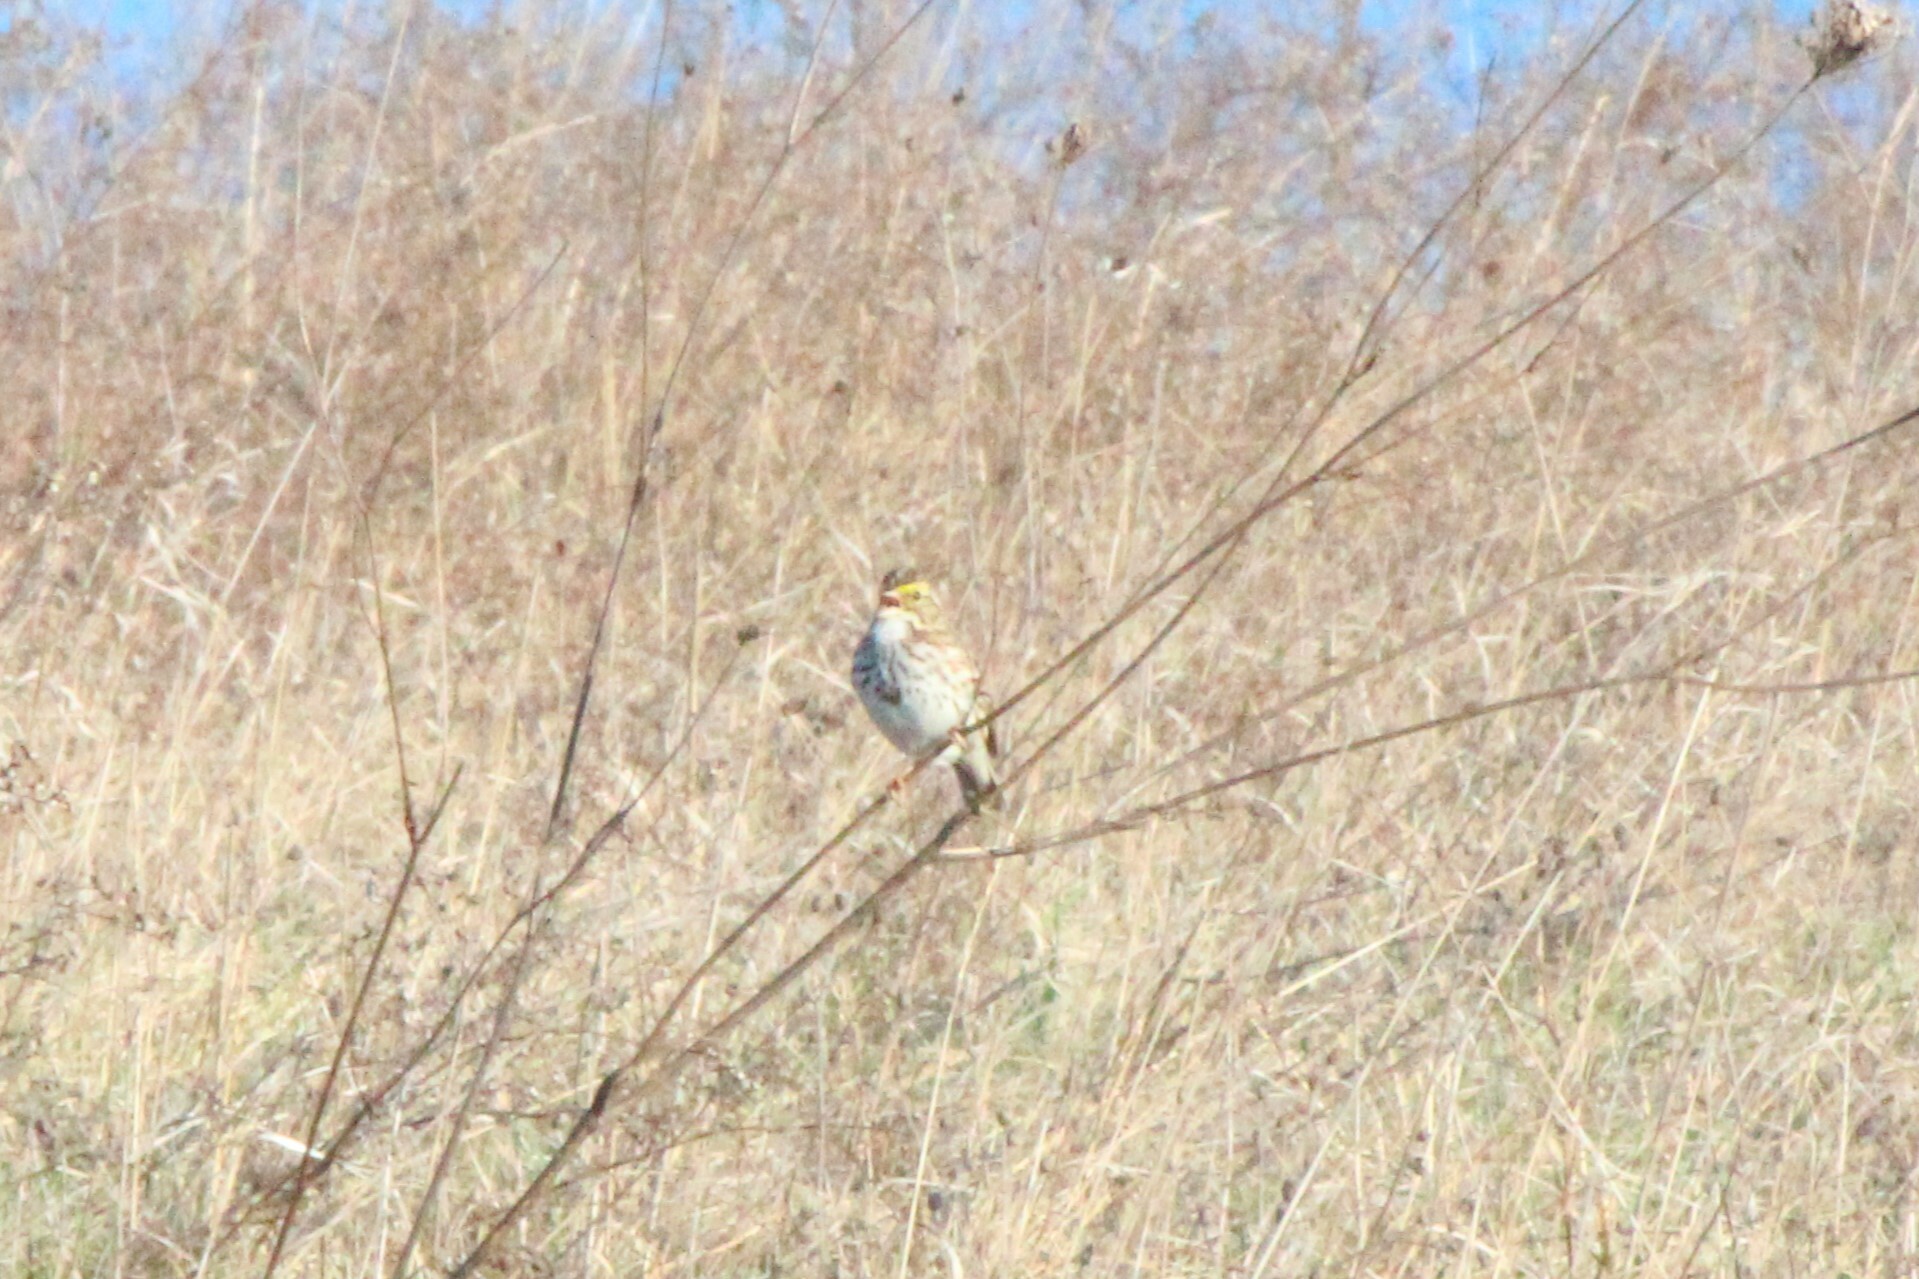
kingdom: Animalia
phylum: Chordata
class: Aves
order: Passeriformes
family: Passerellidae
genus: Passerculus
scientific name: Passerculus sandwichensis
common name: Savannah sparrow
